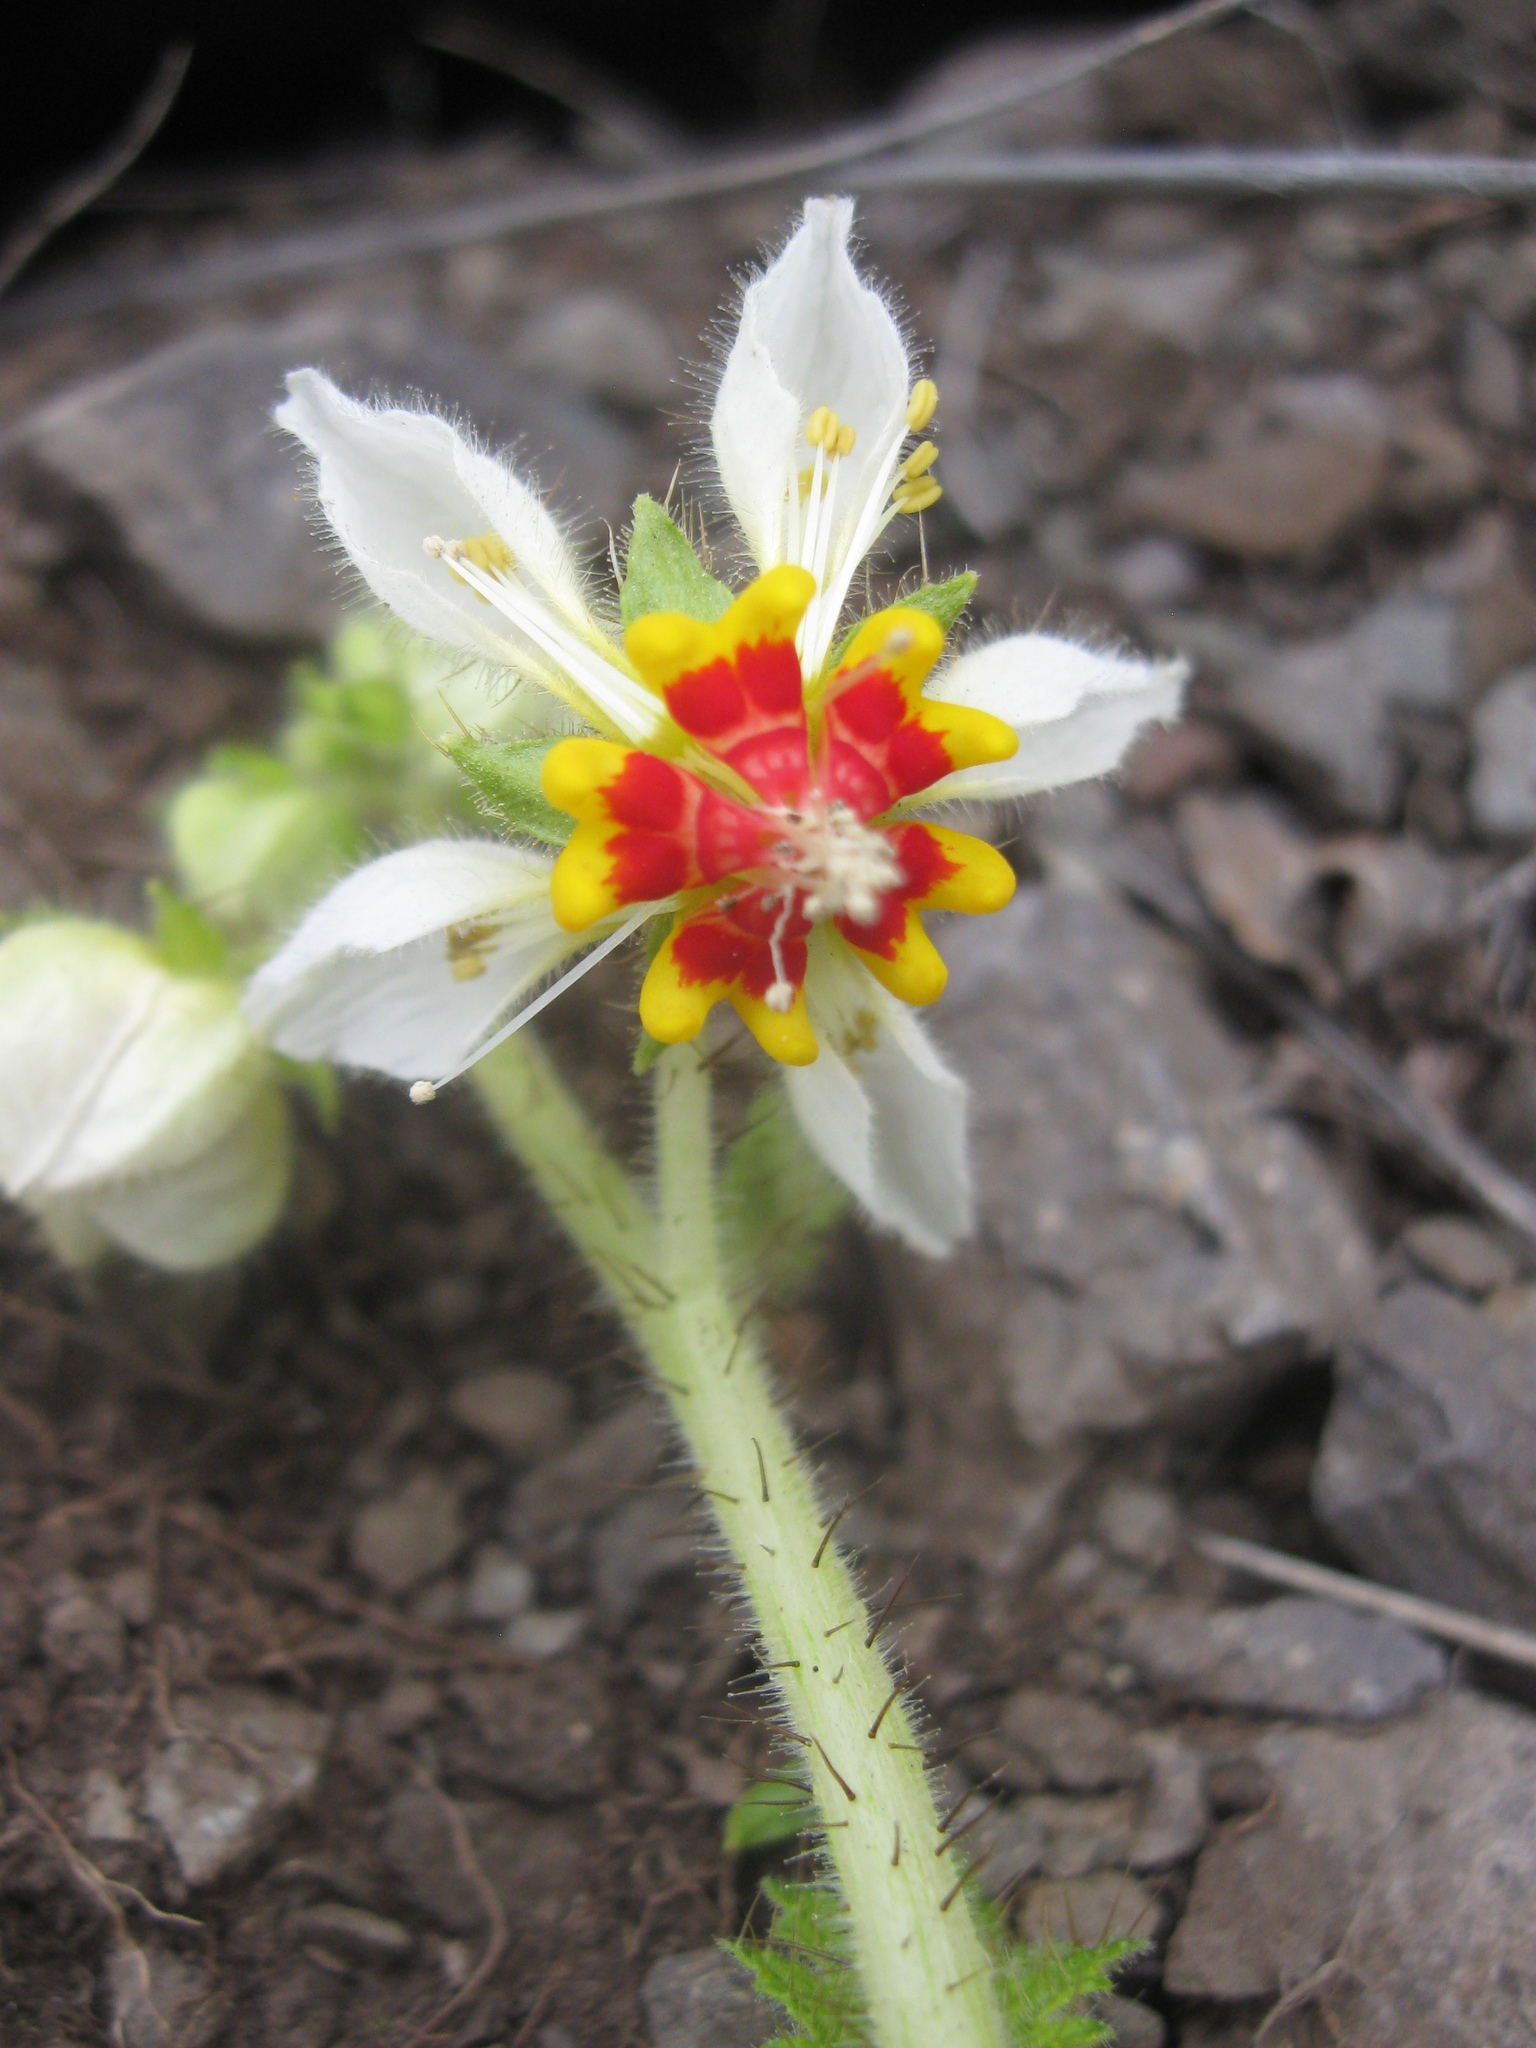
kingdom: Plantae
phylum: Tracheophyta
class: Magnoliopsida
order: Cornales
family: Loasaceae
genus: Nasa
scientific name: Nasa poissoniana
